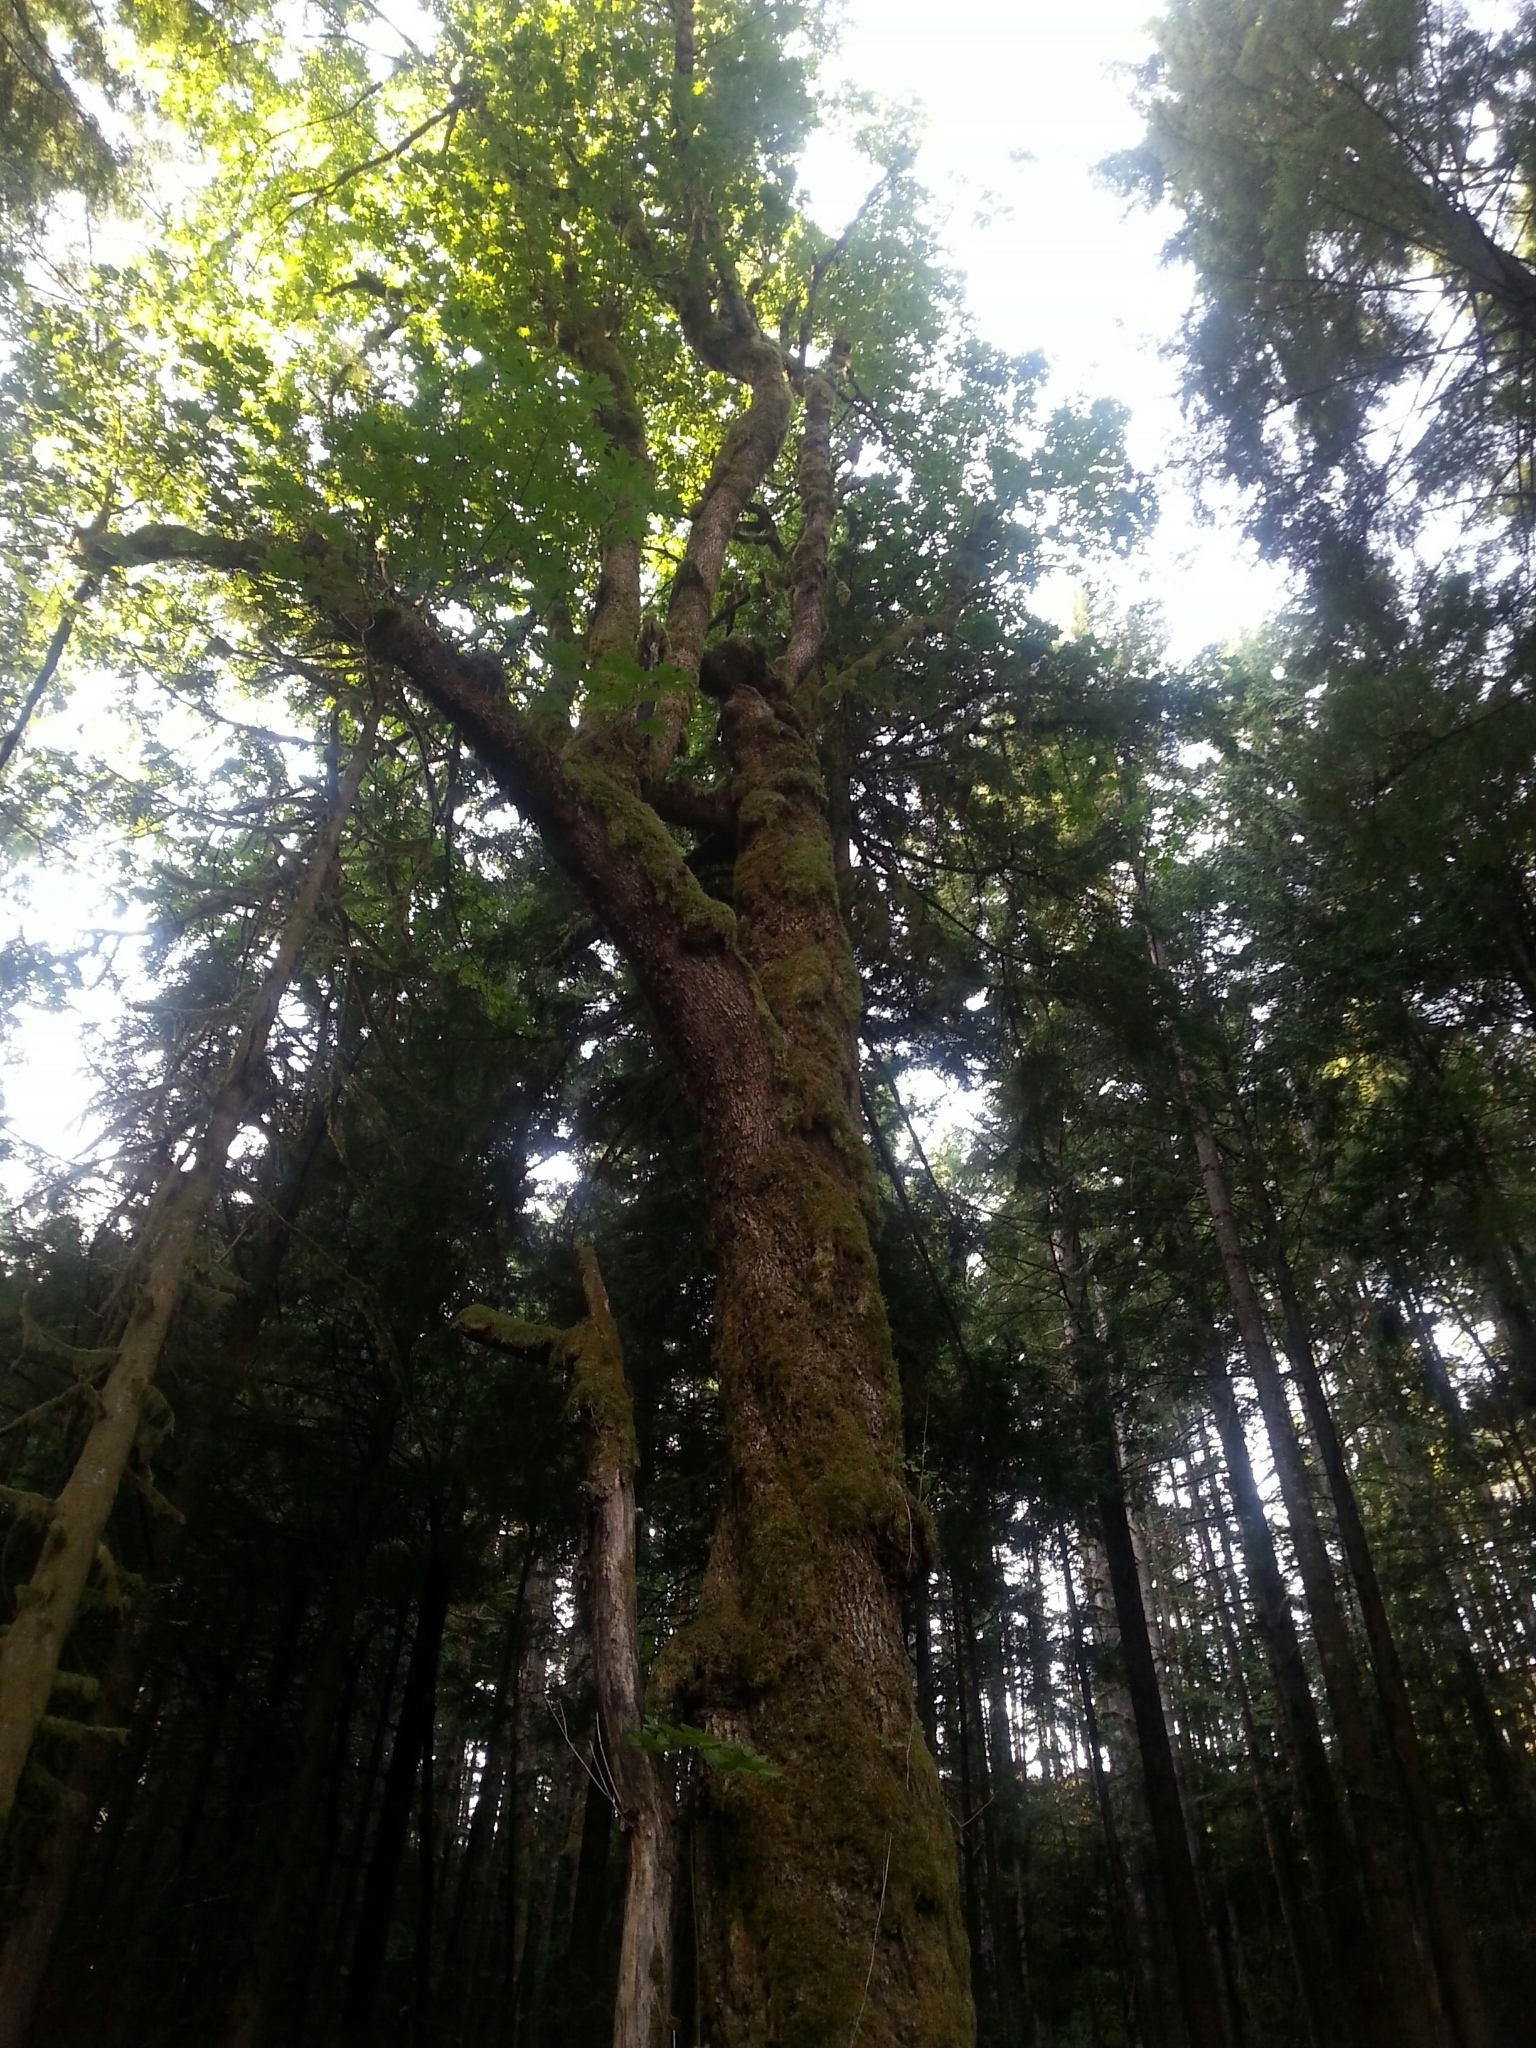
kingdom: Plantae
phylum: Tracheophyta
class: Magnoliopsida
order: Sapindales
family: Sapindaceae
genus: Acer
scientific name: Acer macrophyllum
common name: Oregon maple
